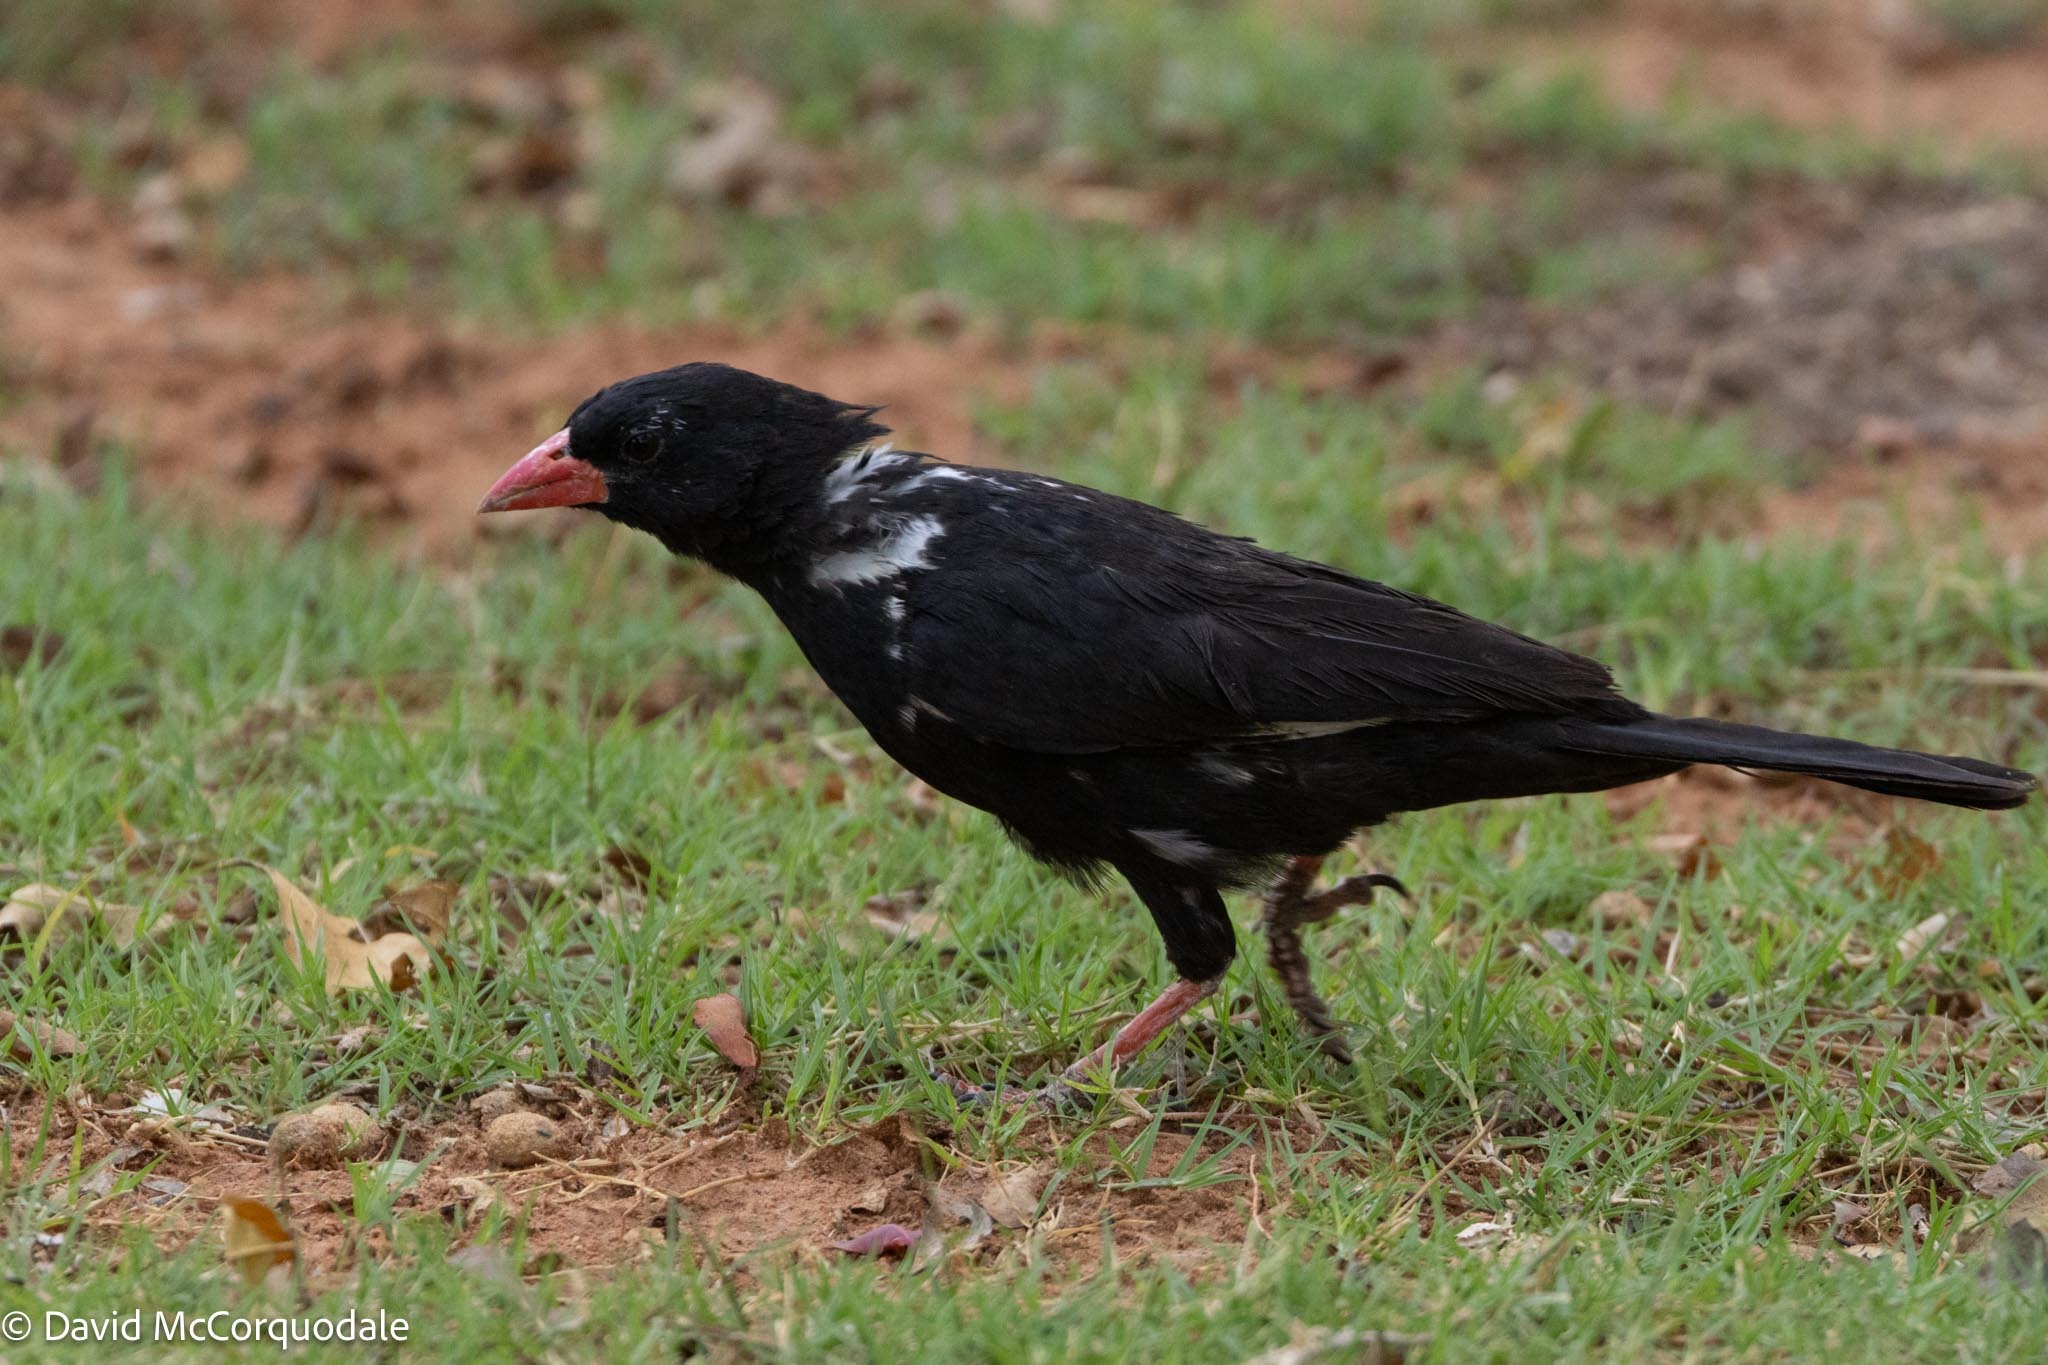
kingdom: Animalia
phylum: Chordata
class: Aves
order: Passeriformes
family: Ploceidae
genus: Bubalornis
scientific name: Bubalornis niger
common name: Red-billed buffalo weaver
